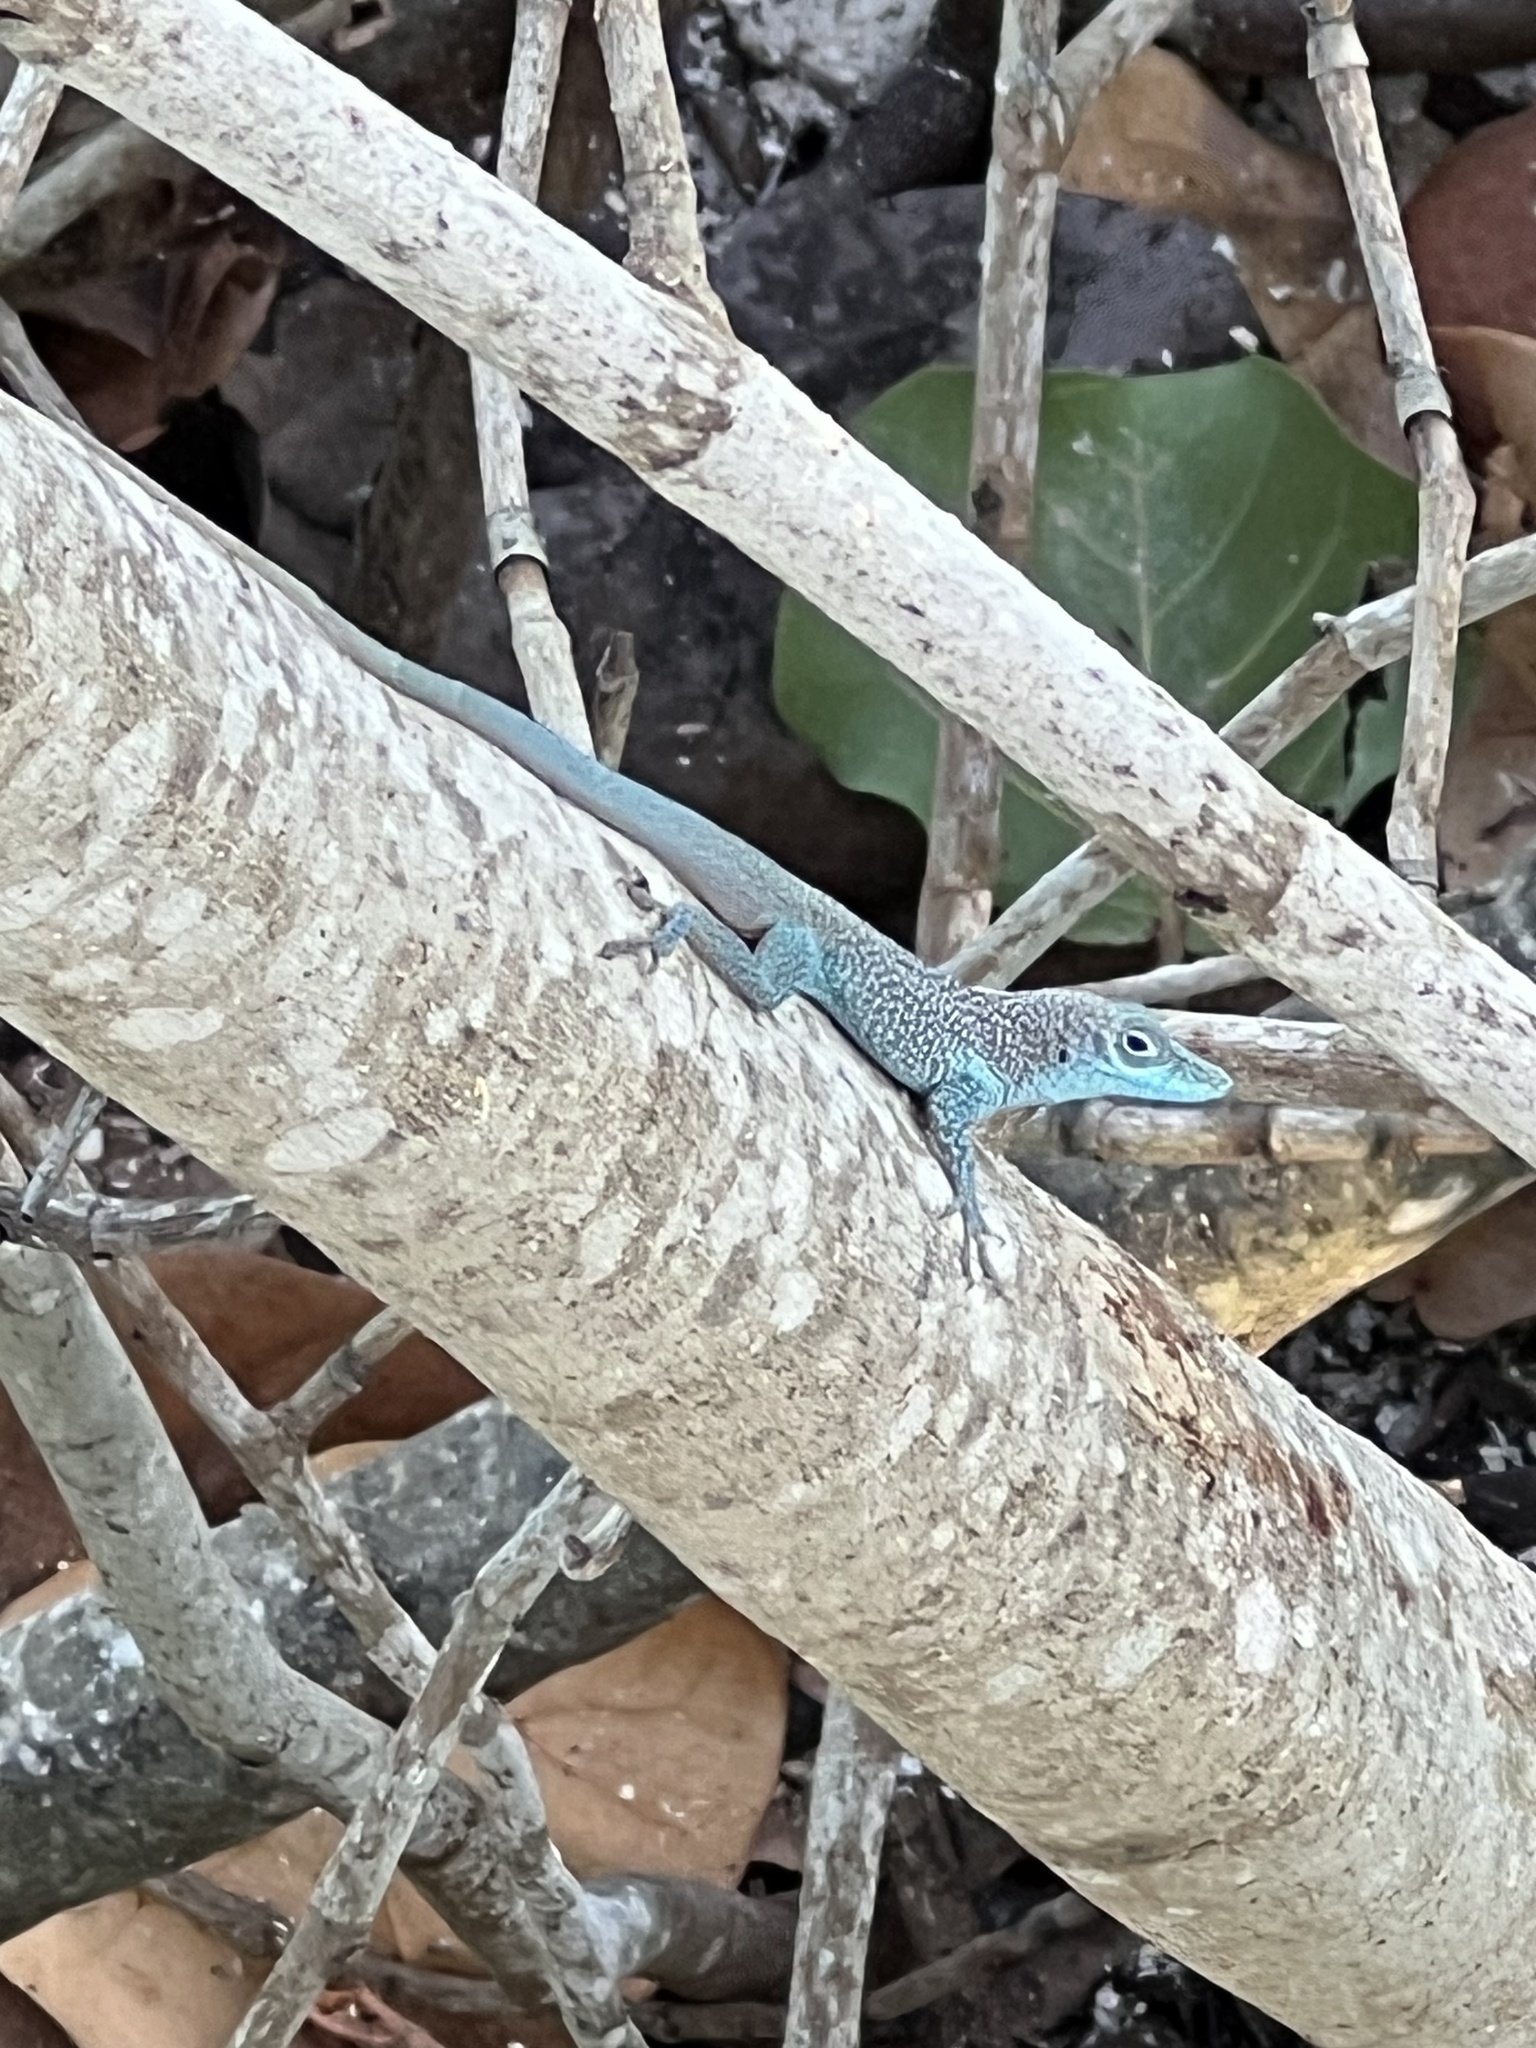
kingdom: Animalia
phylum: Chordata
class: Squamata
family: Dactyloidae
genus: Anolis
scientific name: Anolis conspersus
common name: Grand cayman anole
